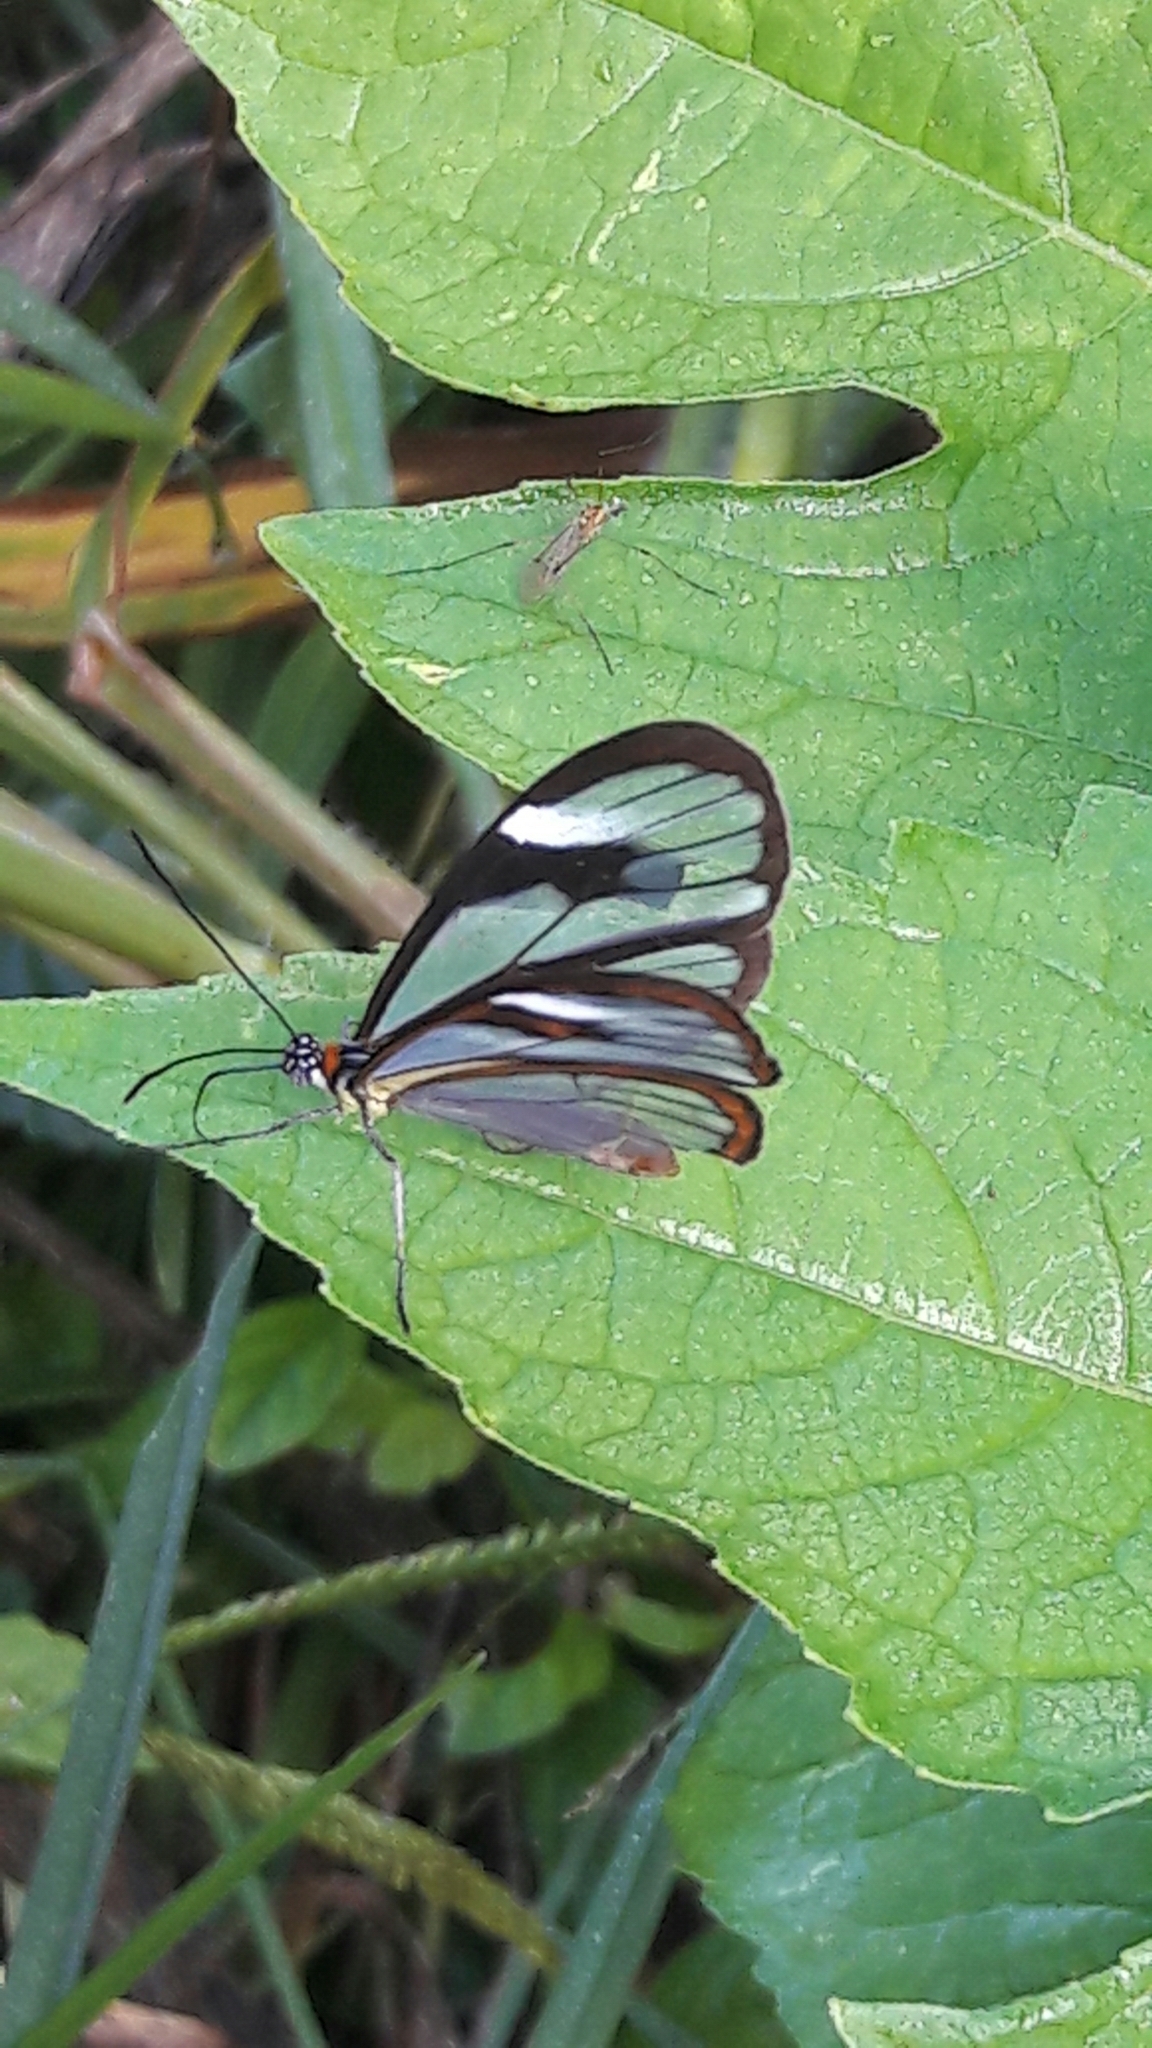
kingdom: Animalia
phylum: Arthropoda
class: Insecta
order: Lepidoptera
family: Nymphalidae
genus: Ithomia
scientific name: Ithomia agnosia
